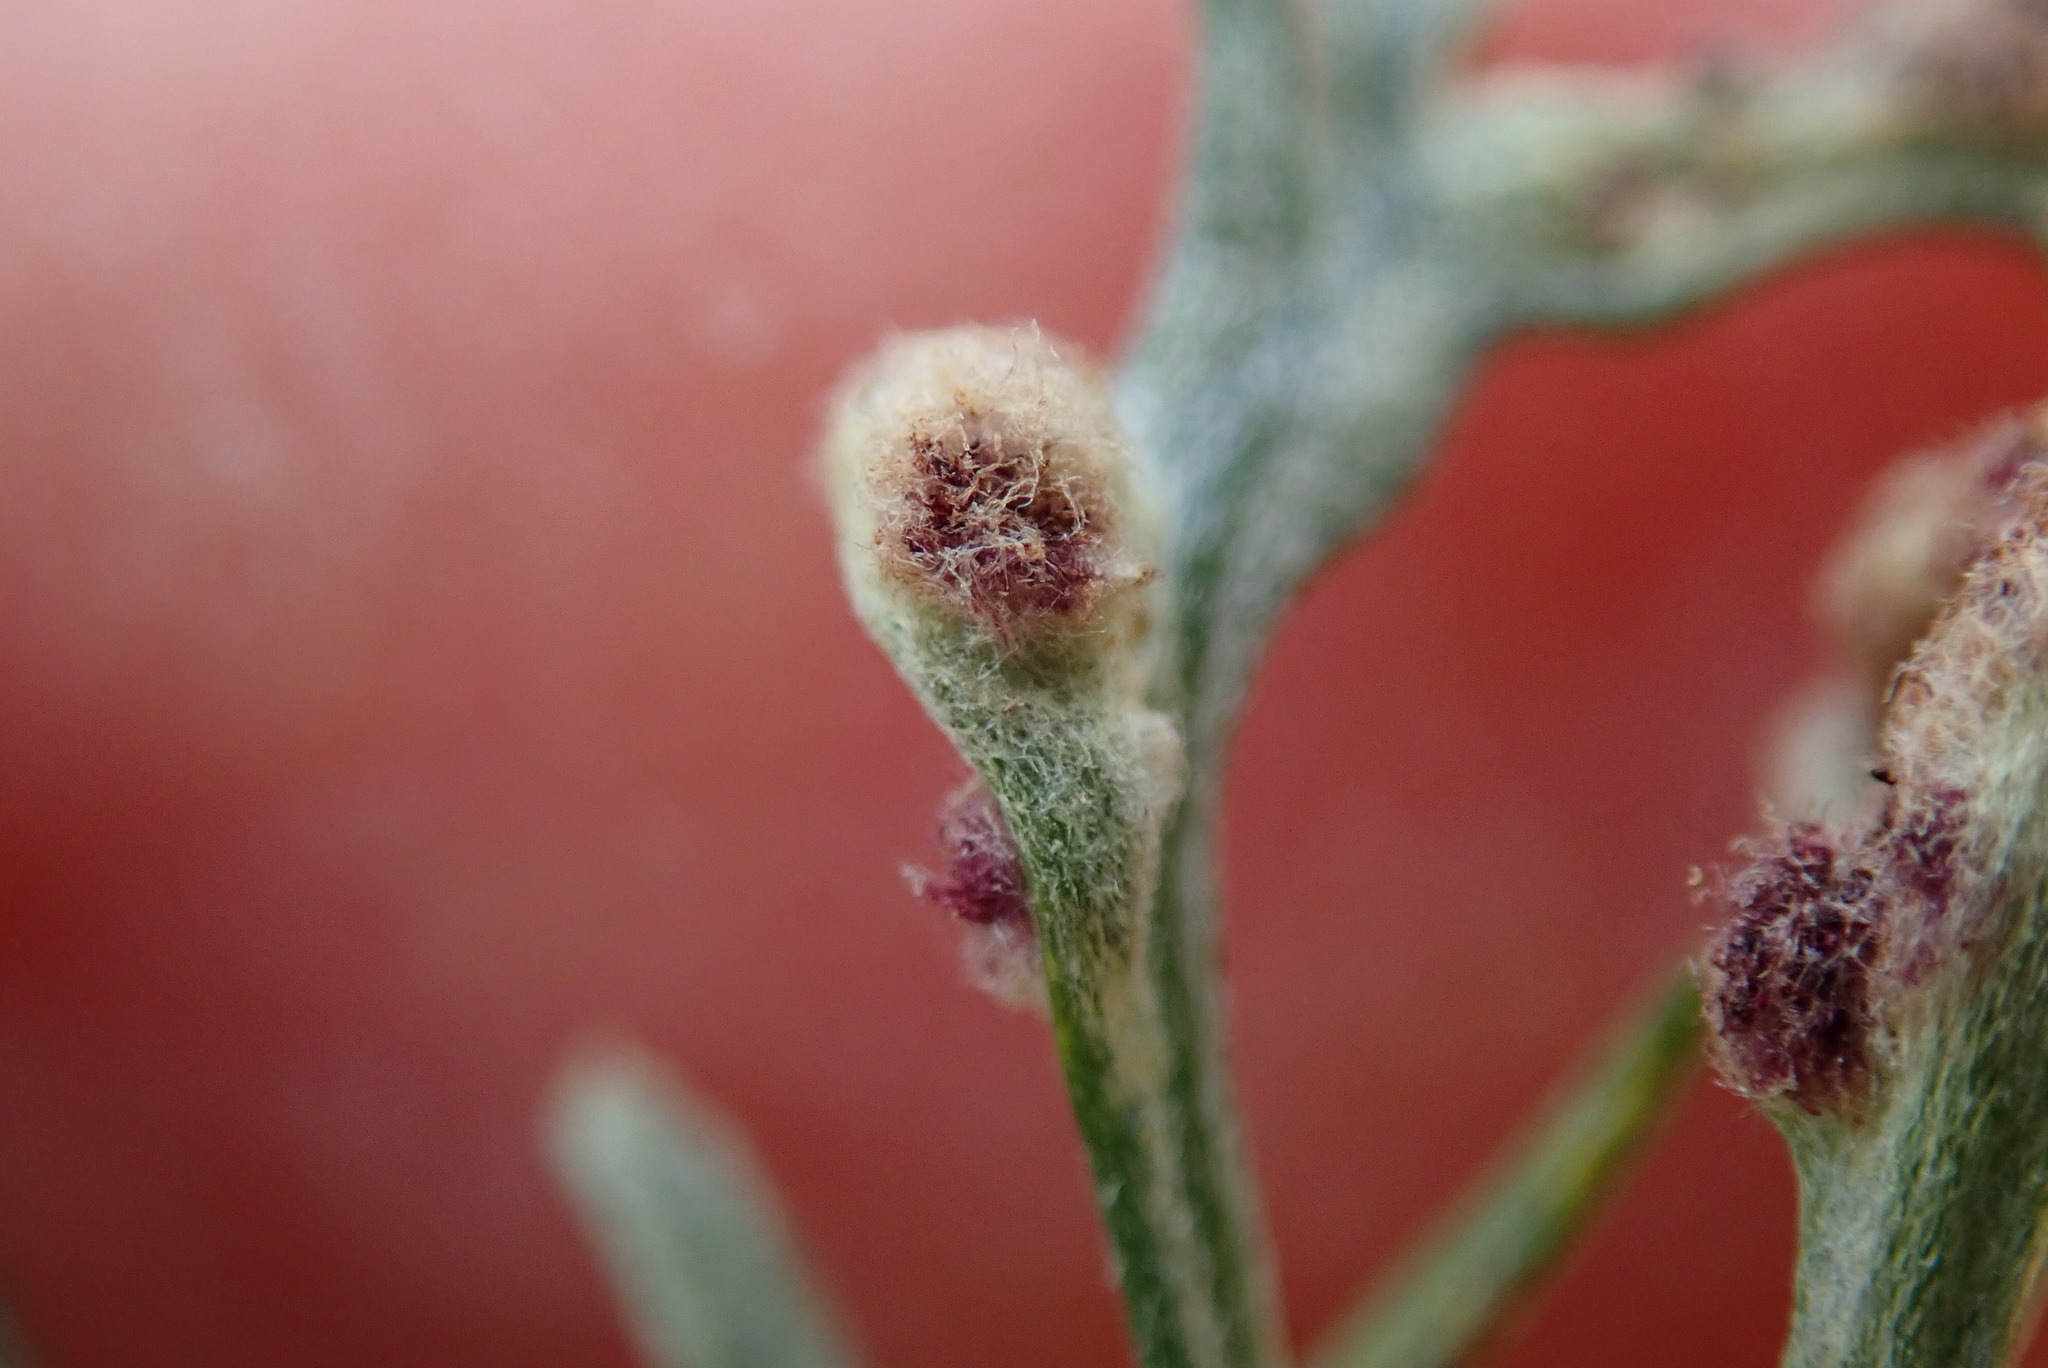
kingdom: Animalia
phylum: Arthropoda
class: Arachnida
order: Trombidiformes
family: Eriophyidae
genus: Aceria
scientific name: Aceria
